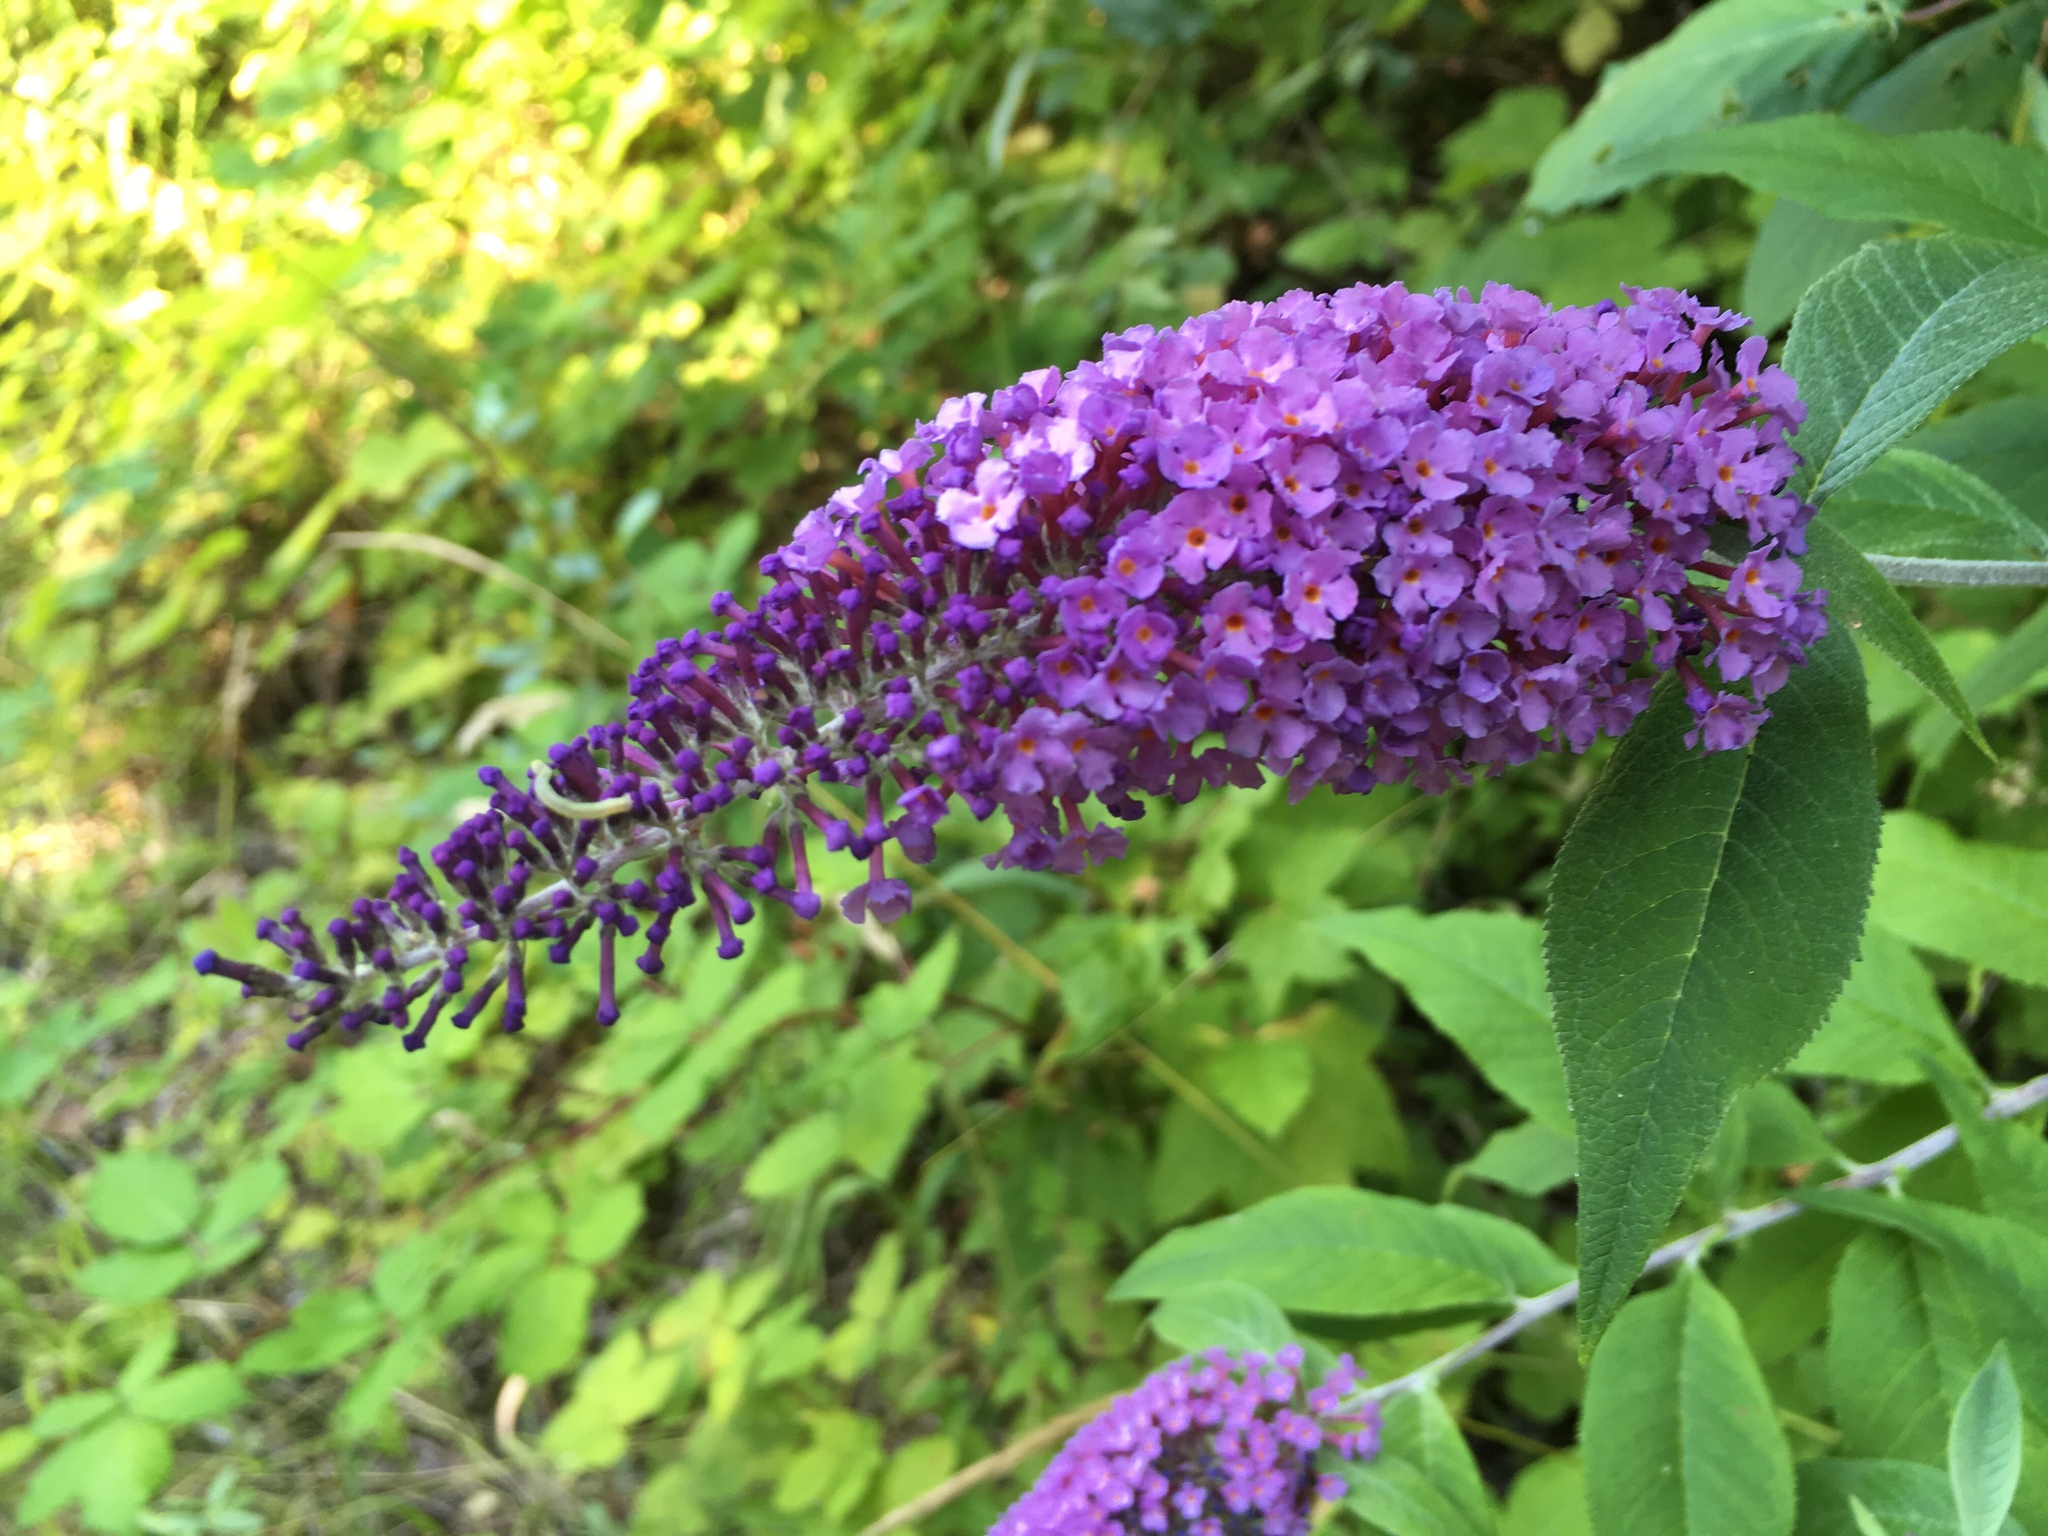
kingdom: Plantae
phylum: Tracheophyta
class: Magnoliopsida
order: Lamiales
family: Scrophulariaceae
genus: Buddleja
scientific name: Buddleja davidii
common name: Butterfly-bush
